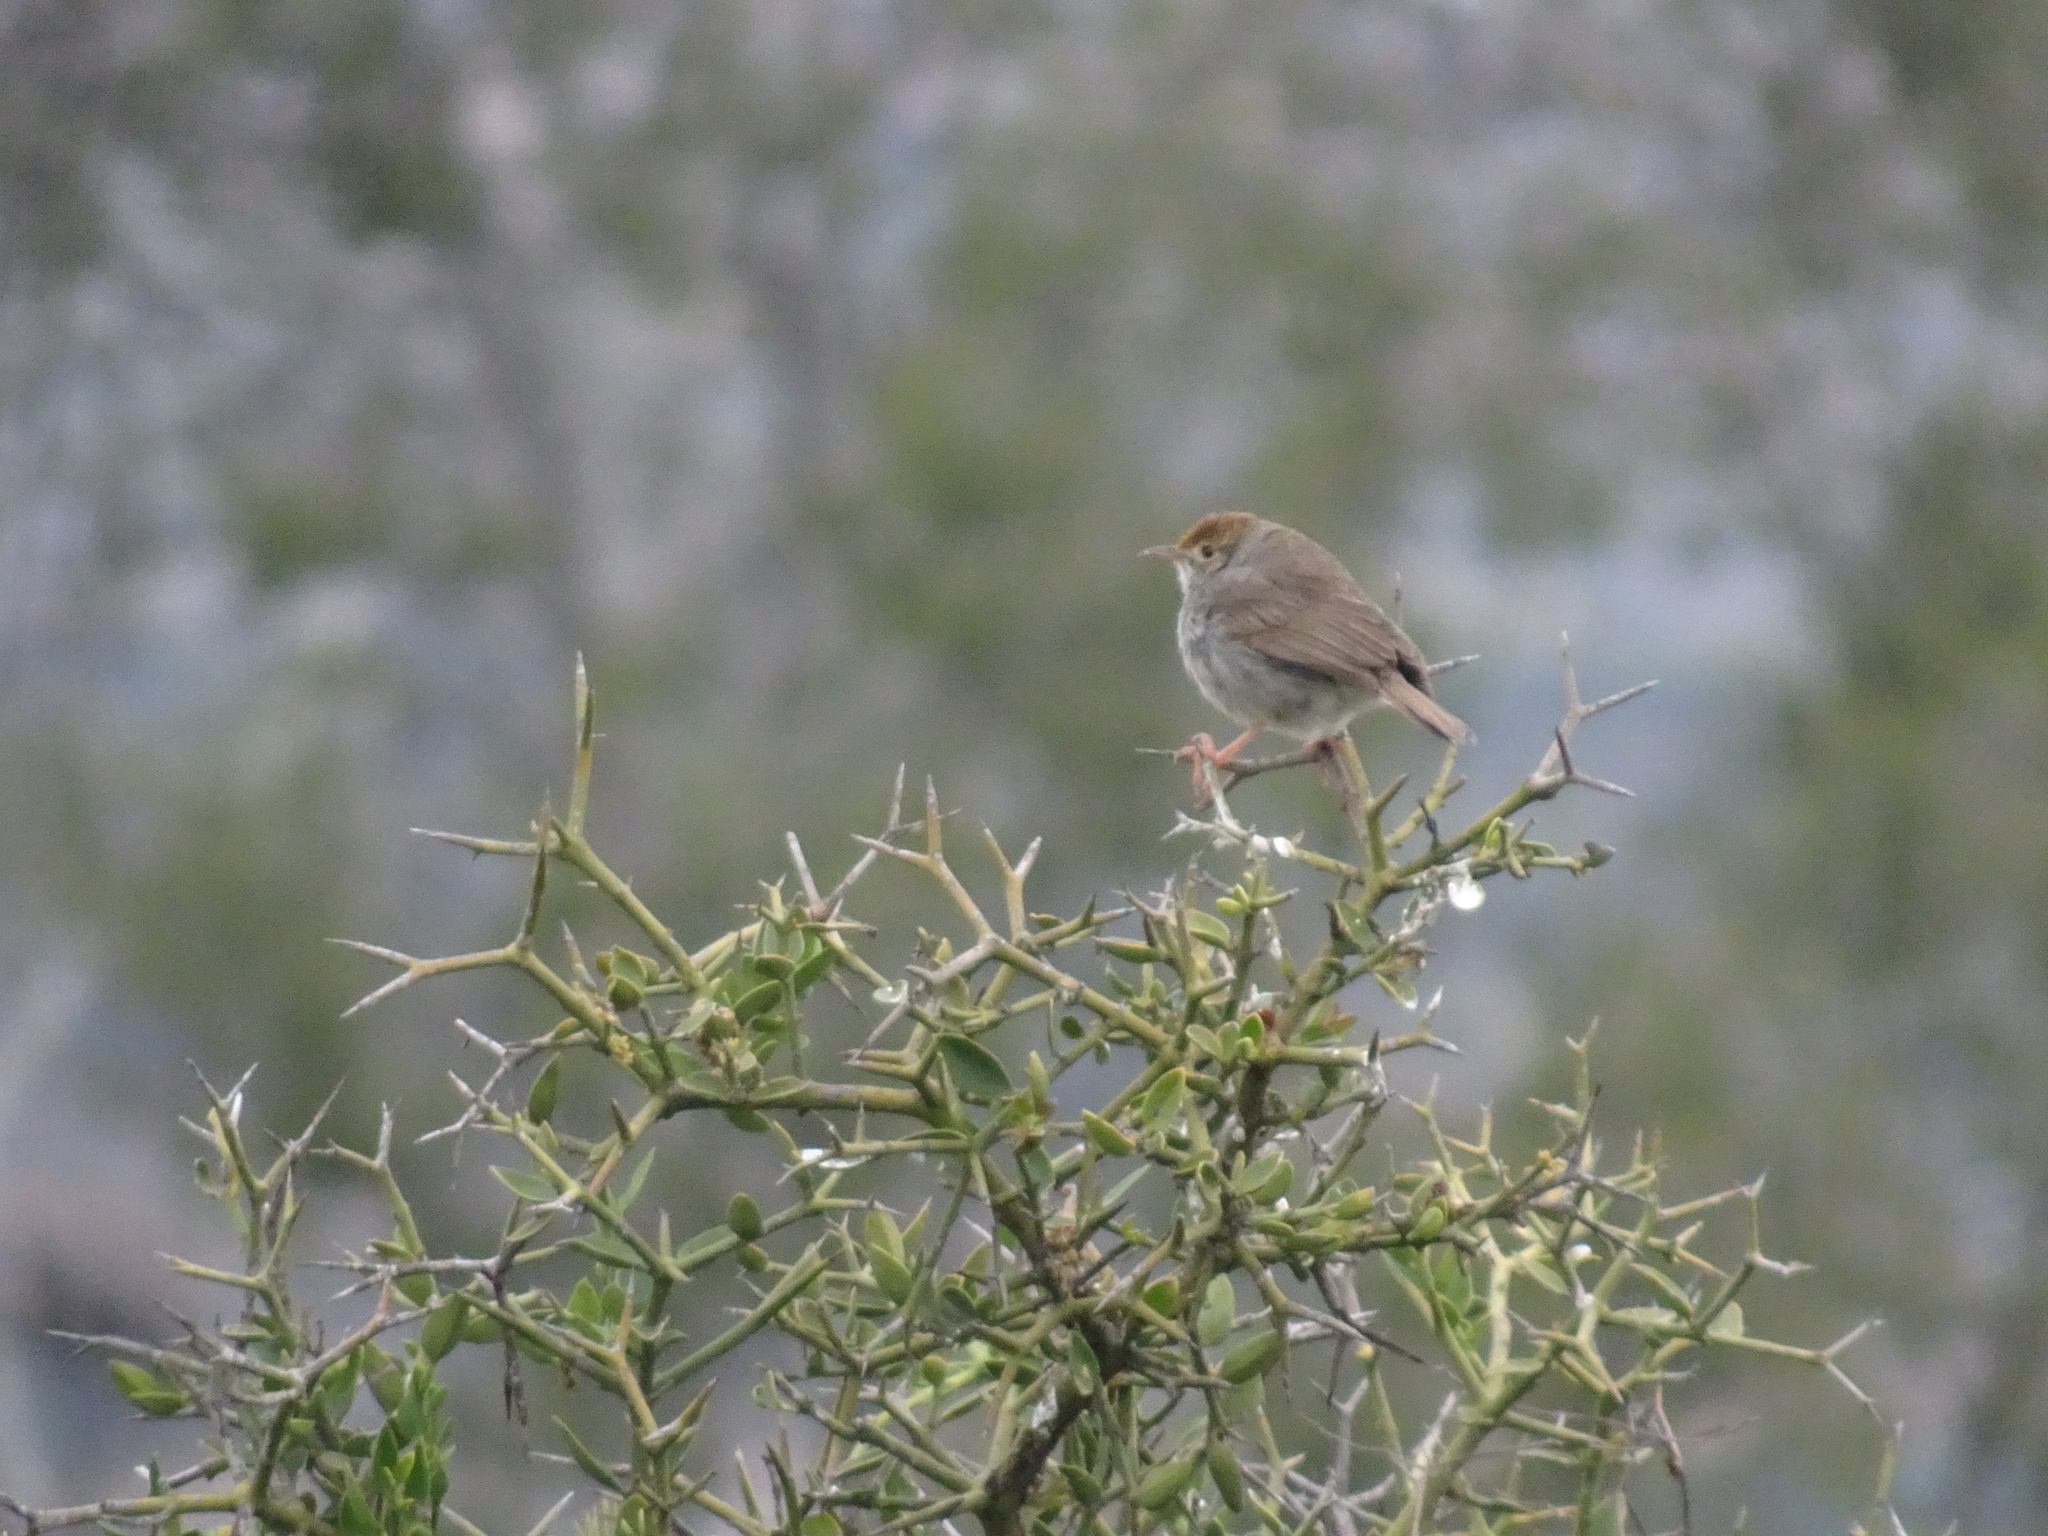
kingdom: Animalia
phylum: Chordata
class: Aves
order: Passeriformes
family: Cisticolidae
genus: Cisticola
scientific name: Cisticola fulvicapilla
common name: Neddicky
